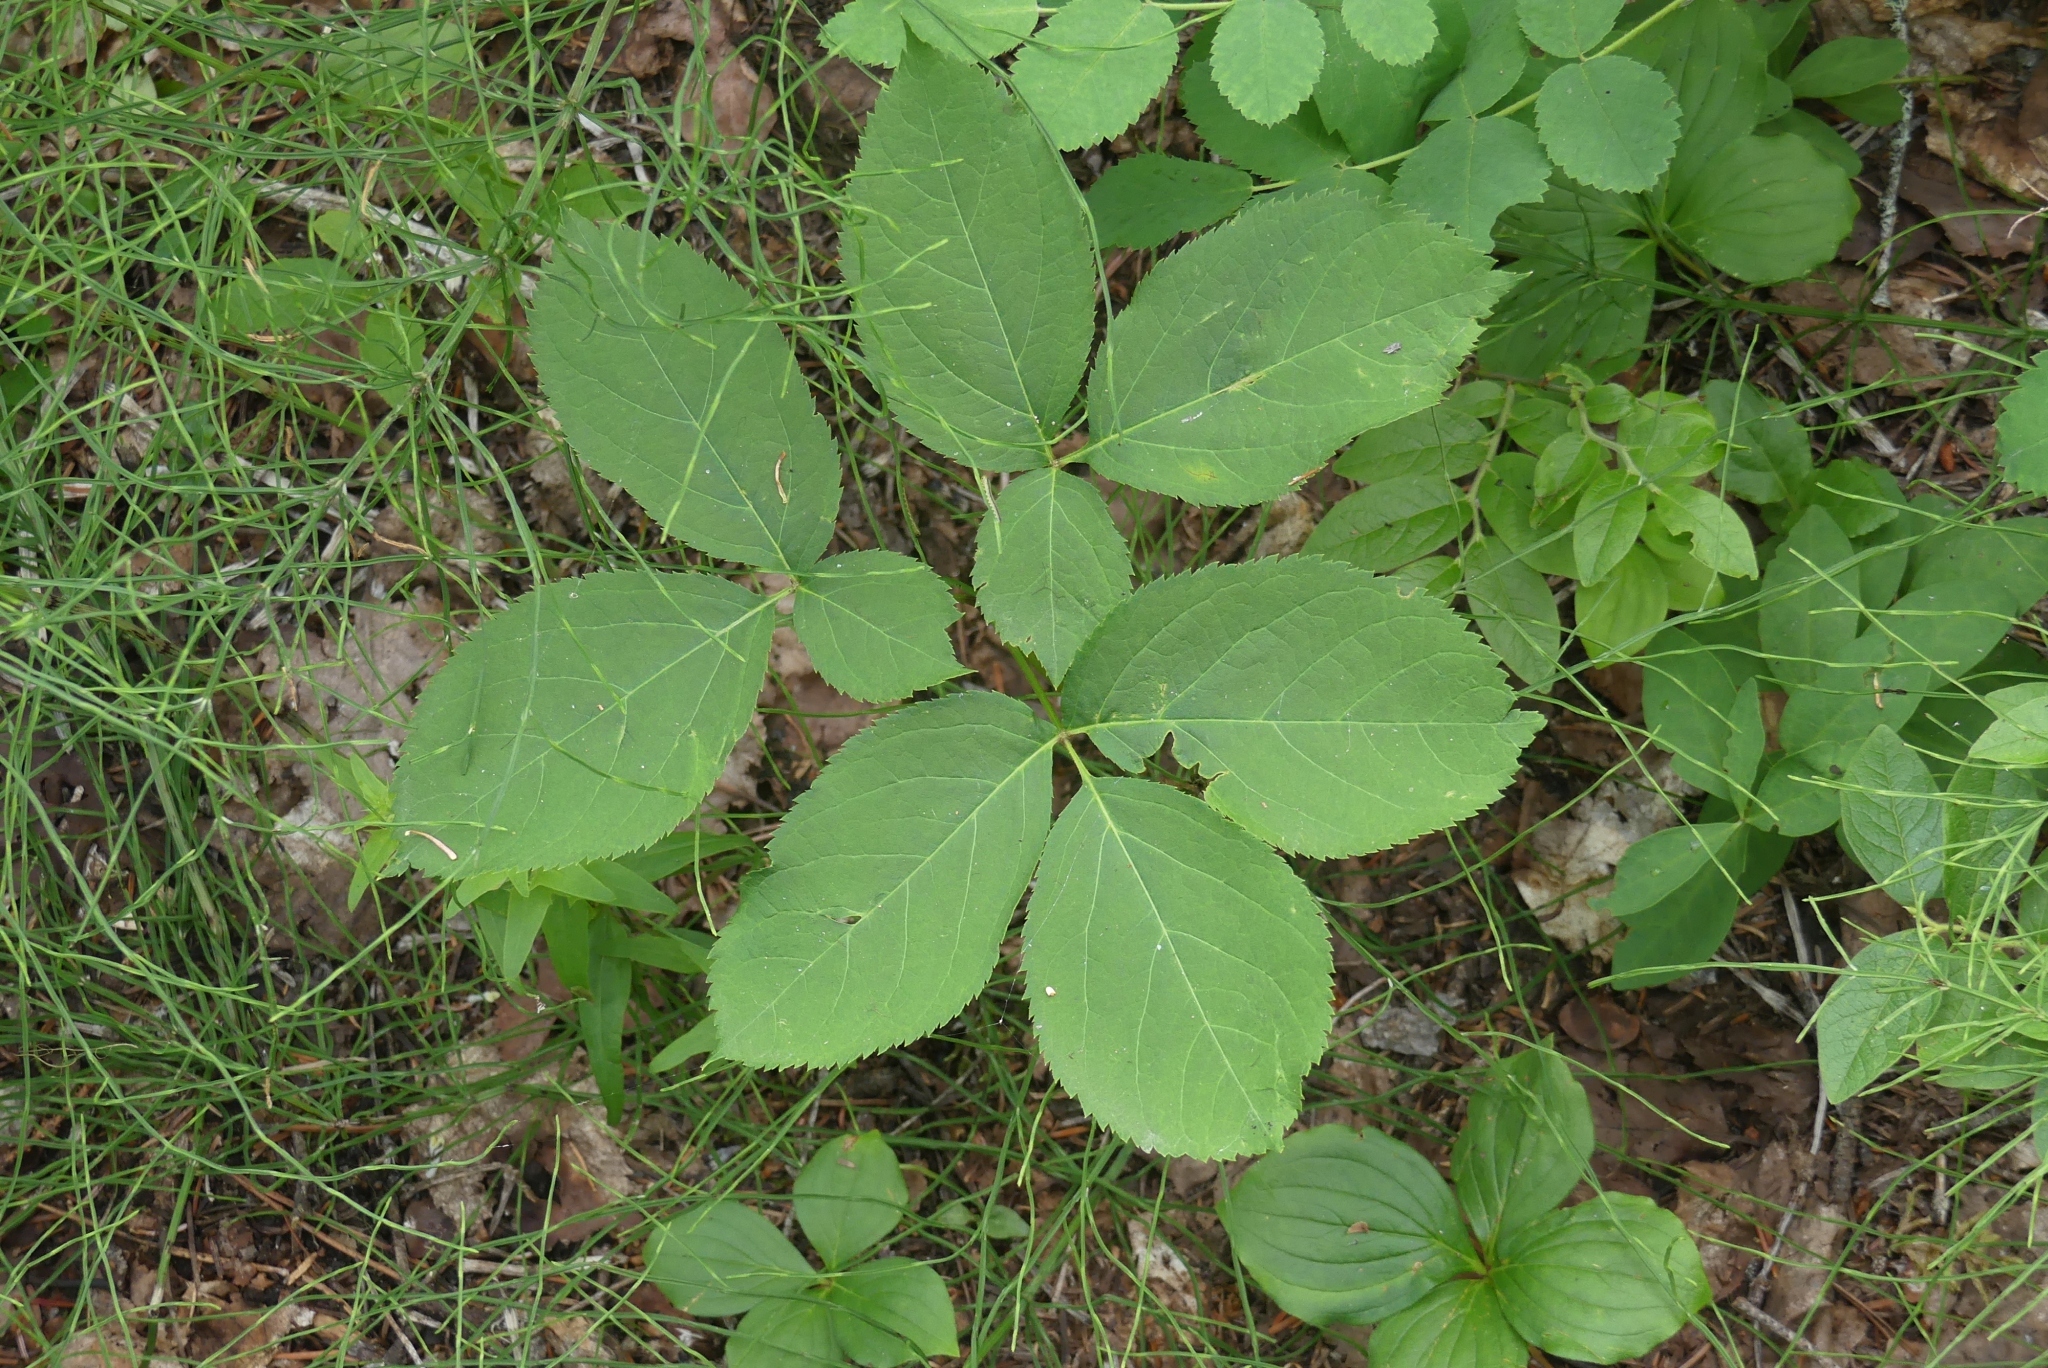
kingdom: Plantae
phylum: Tracheophyta
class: Magnoliopsida
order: Apiales
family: Araliaceae
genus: Aralia
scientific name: Aralia nudicaulis
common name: Wild sarsaparilla
